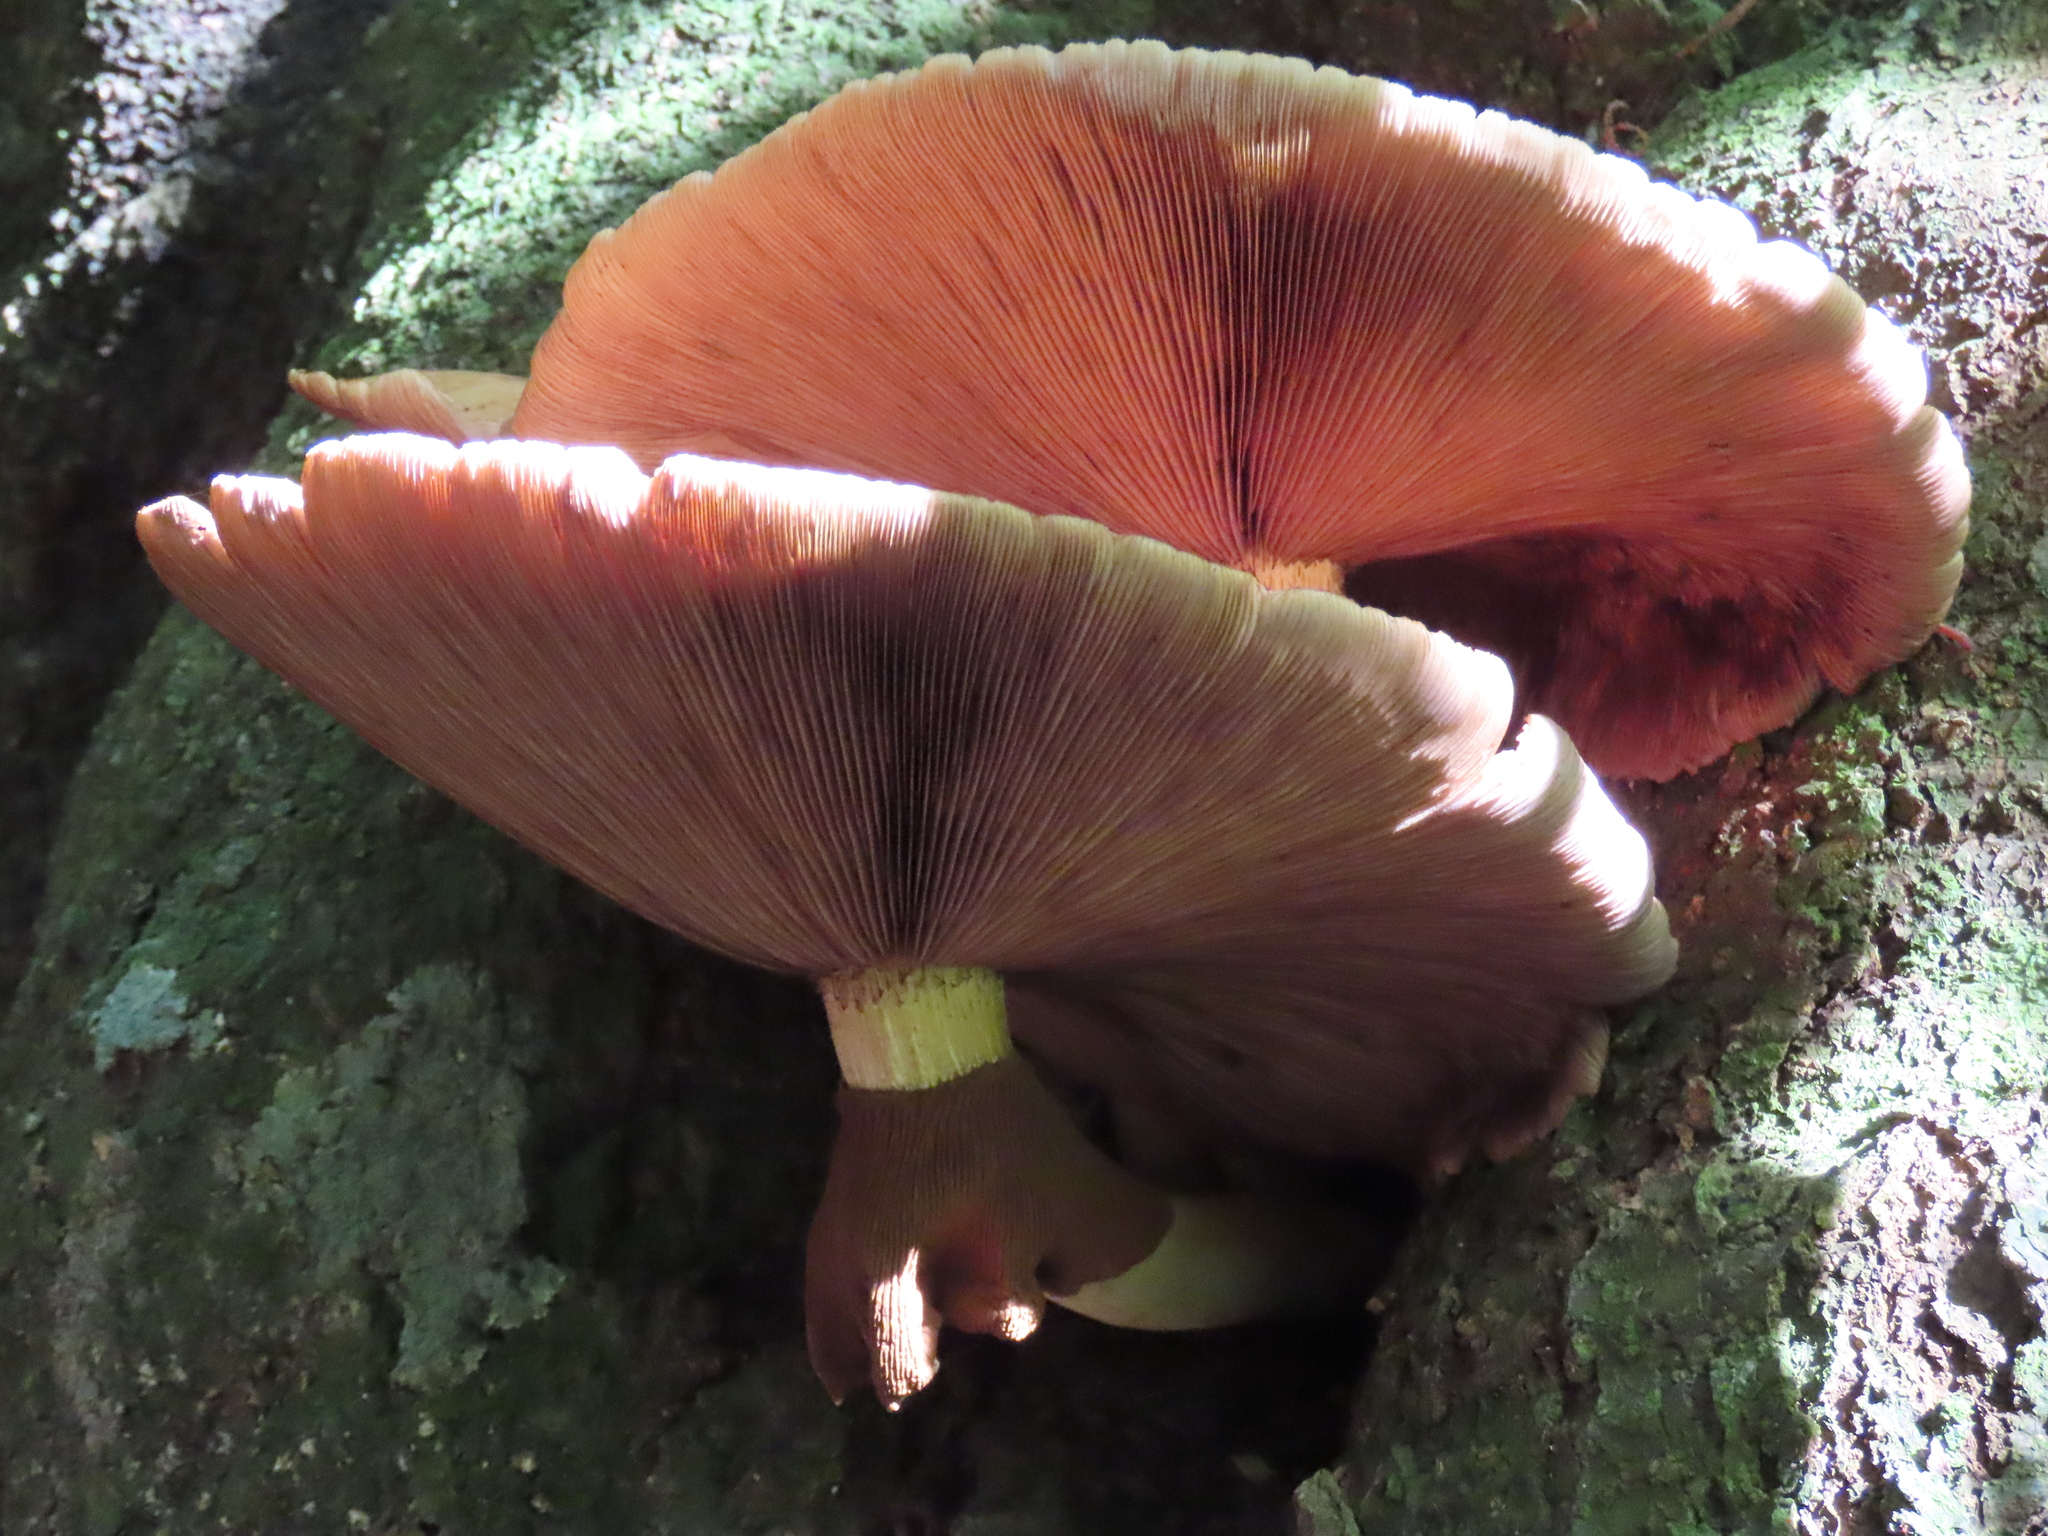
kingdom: Fungi
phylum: Basidiomycota
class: Agaricomycetes
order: Agaricales
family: Tubariaceae
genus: Cyclocybe
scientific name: Cyclocybe parasitica
